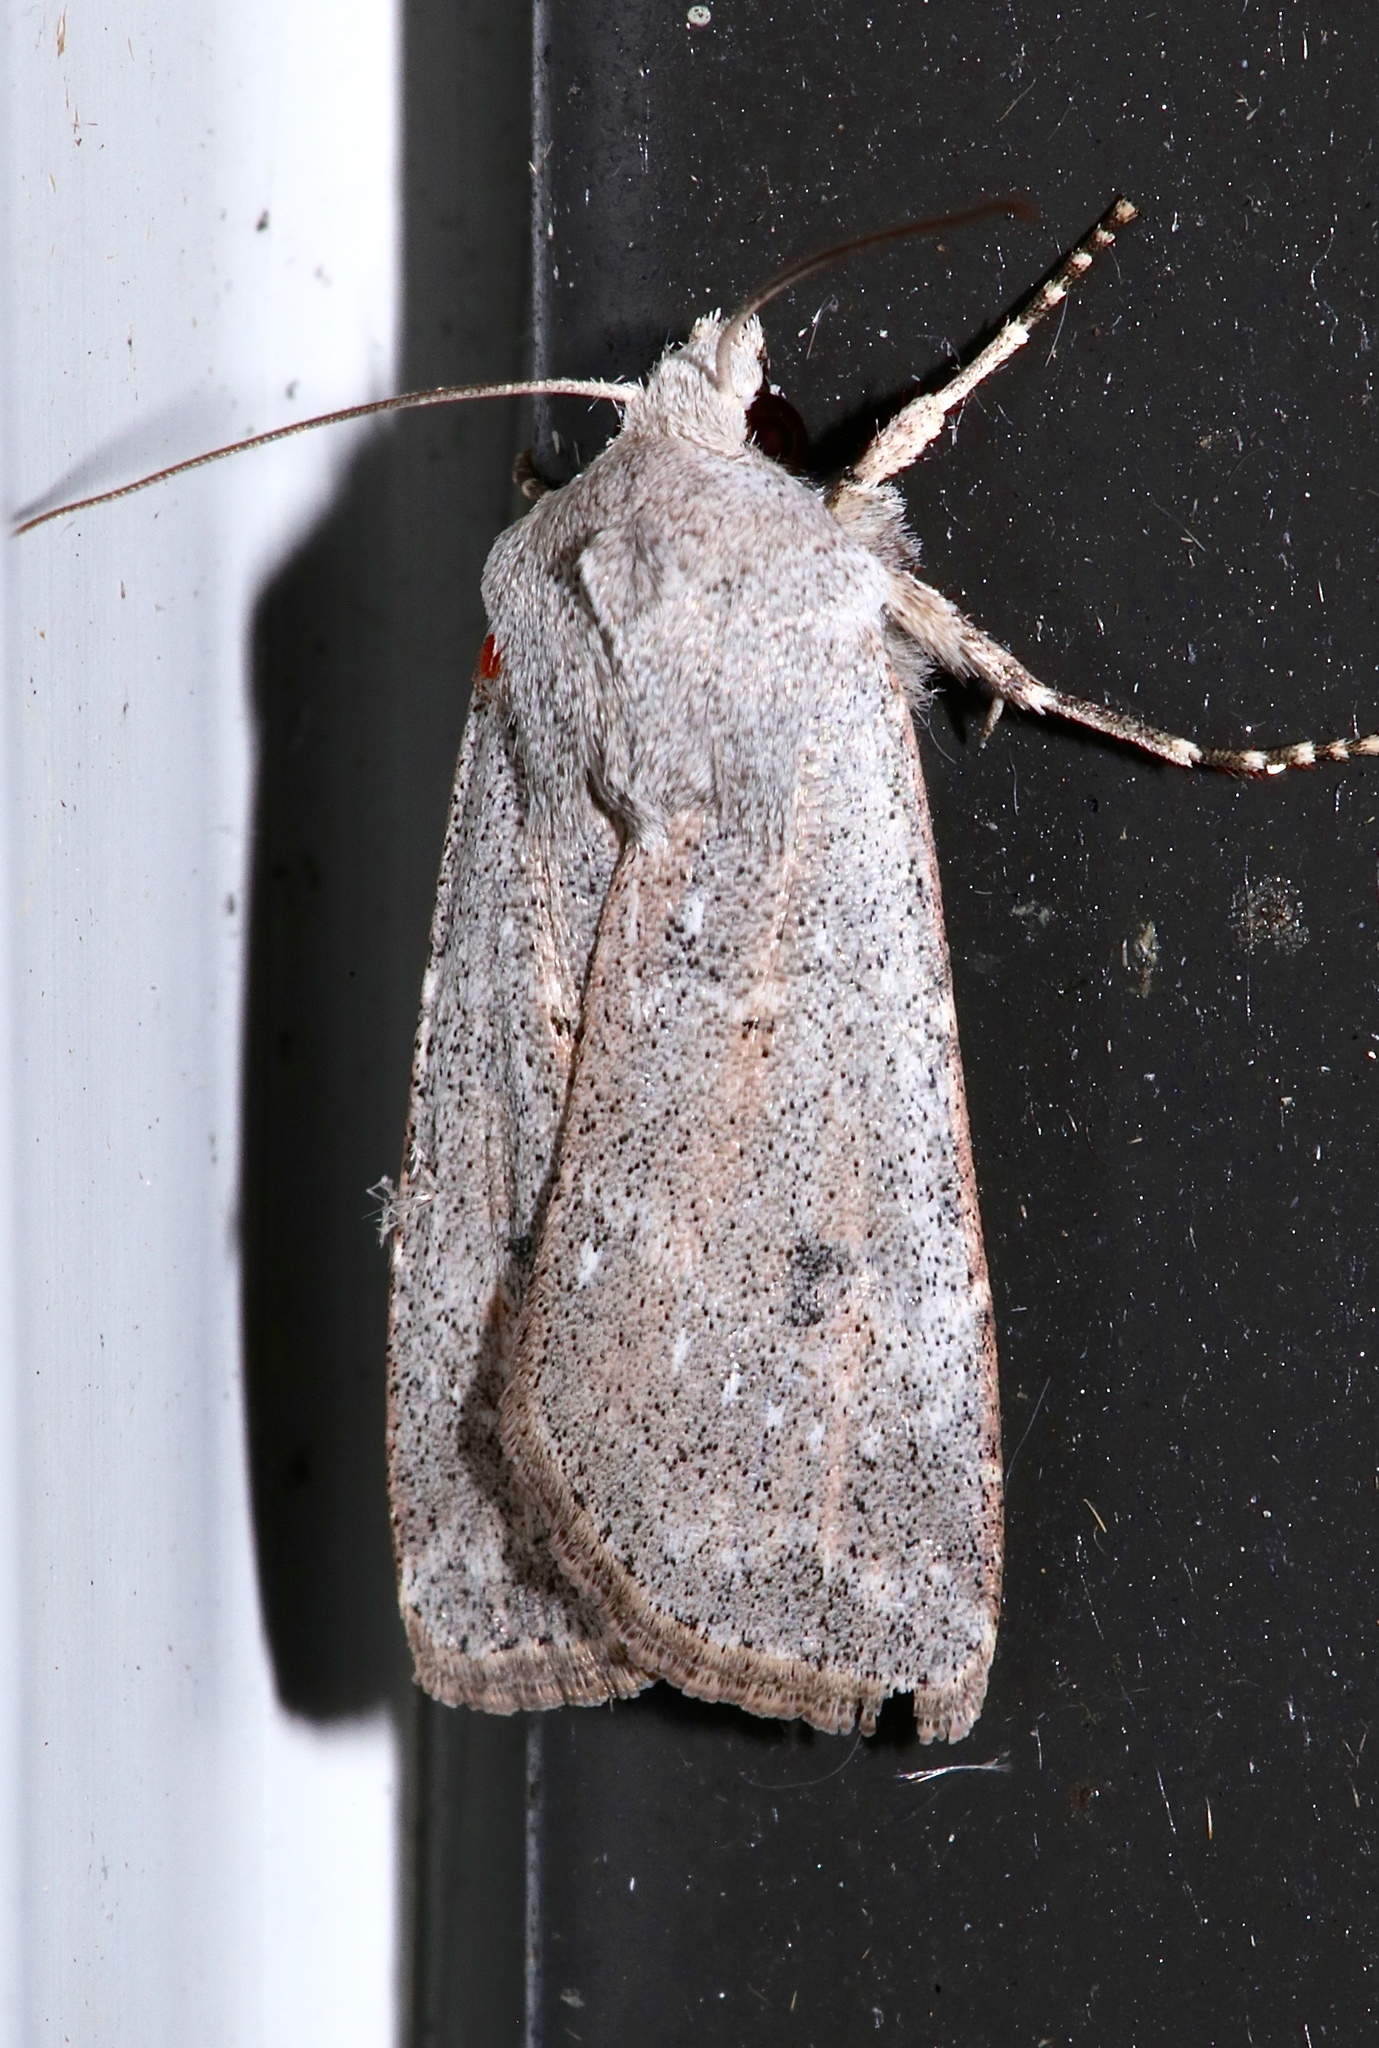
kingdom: Animalia
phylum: Arthropoda
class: Insecta
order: Lepidoptera
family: Noctuidae
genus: Agrotis
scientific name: Agrotis vetusta
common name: Old man dart
